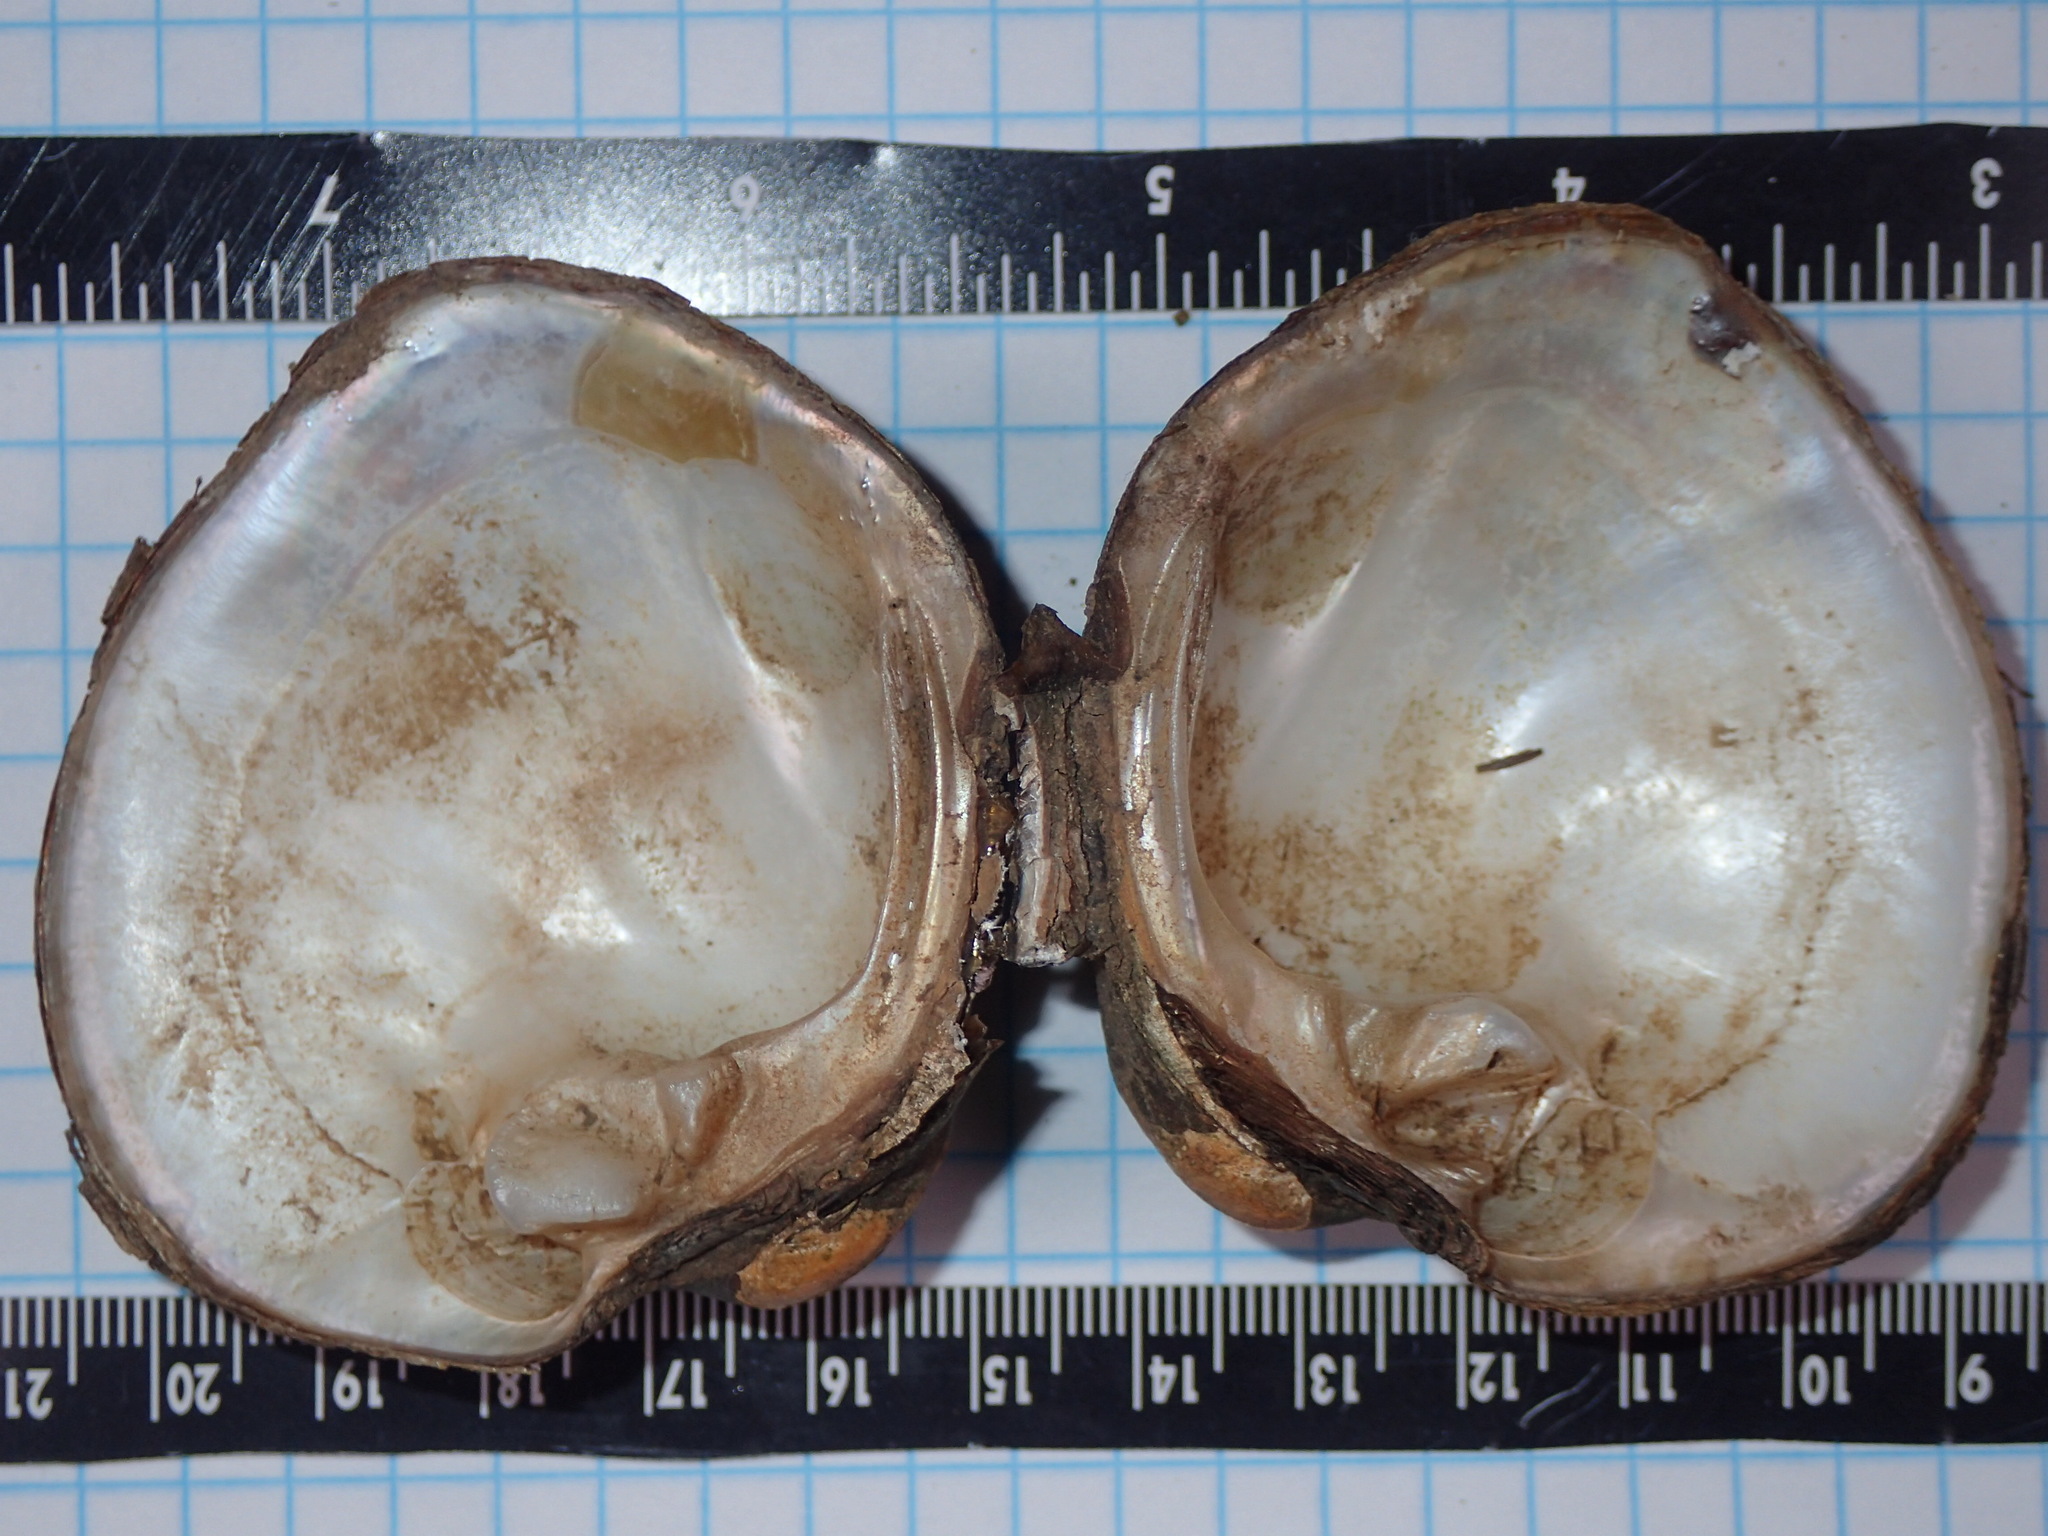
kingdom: Animalia
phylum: Mollusca
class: Bivalvia
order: Unionida
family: Unionidae
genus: Cyclonaias
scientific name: Cyclonaias pustulosa
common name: Pimpleback
